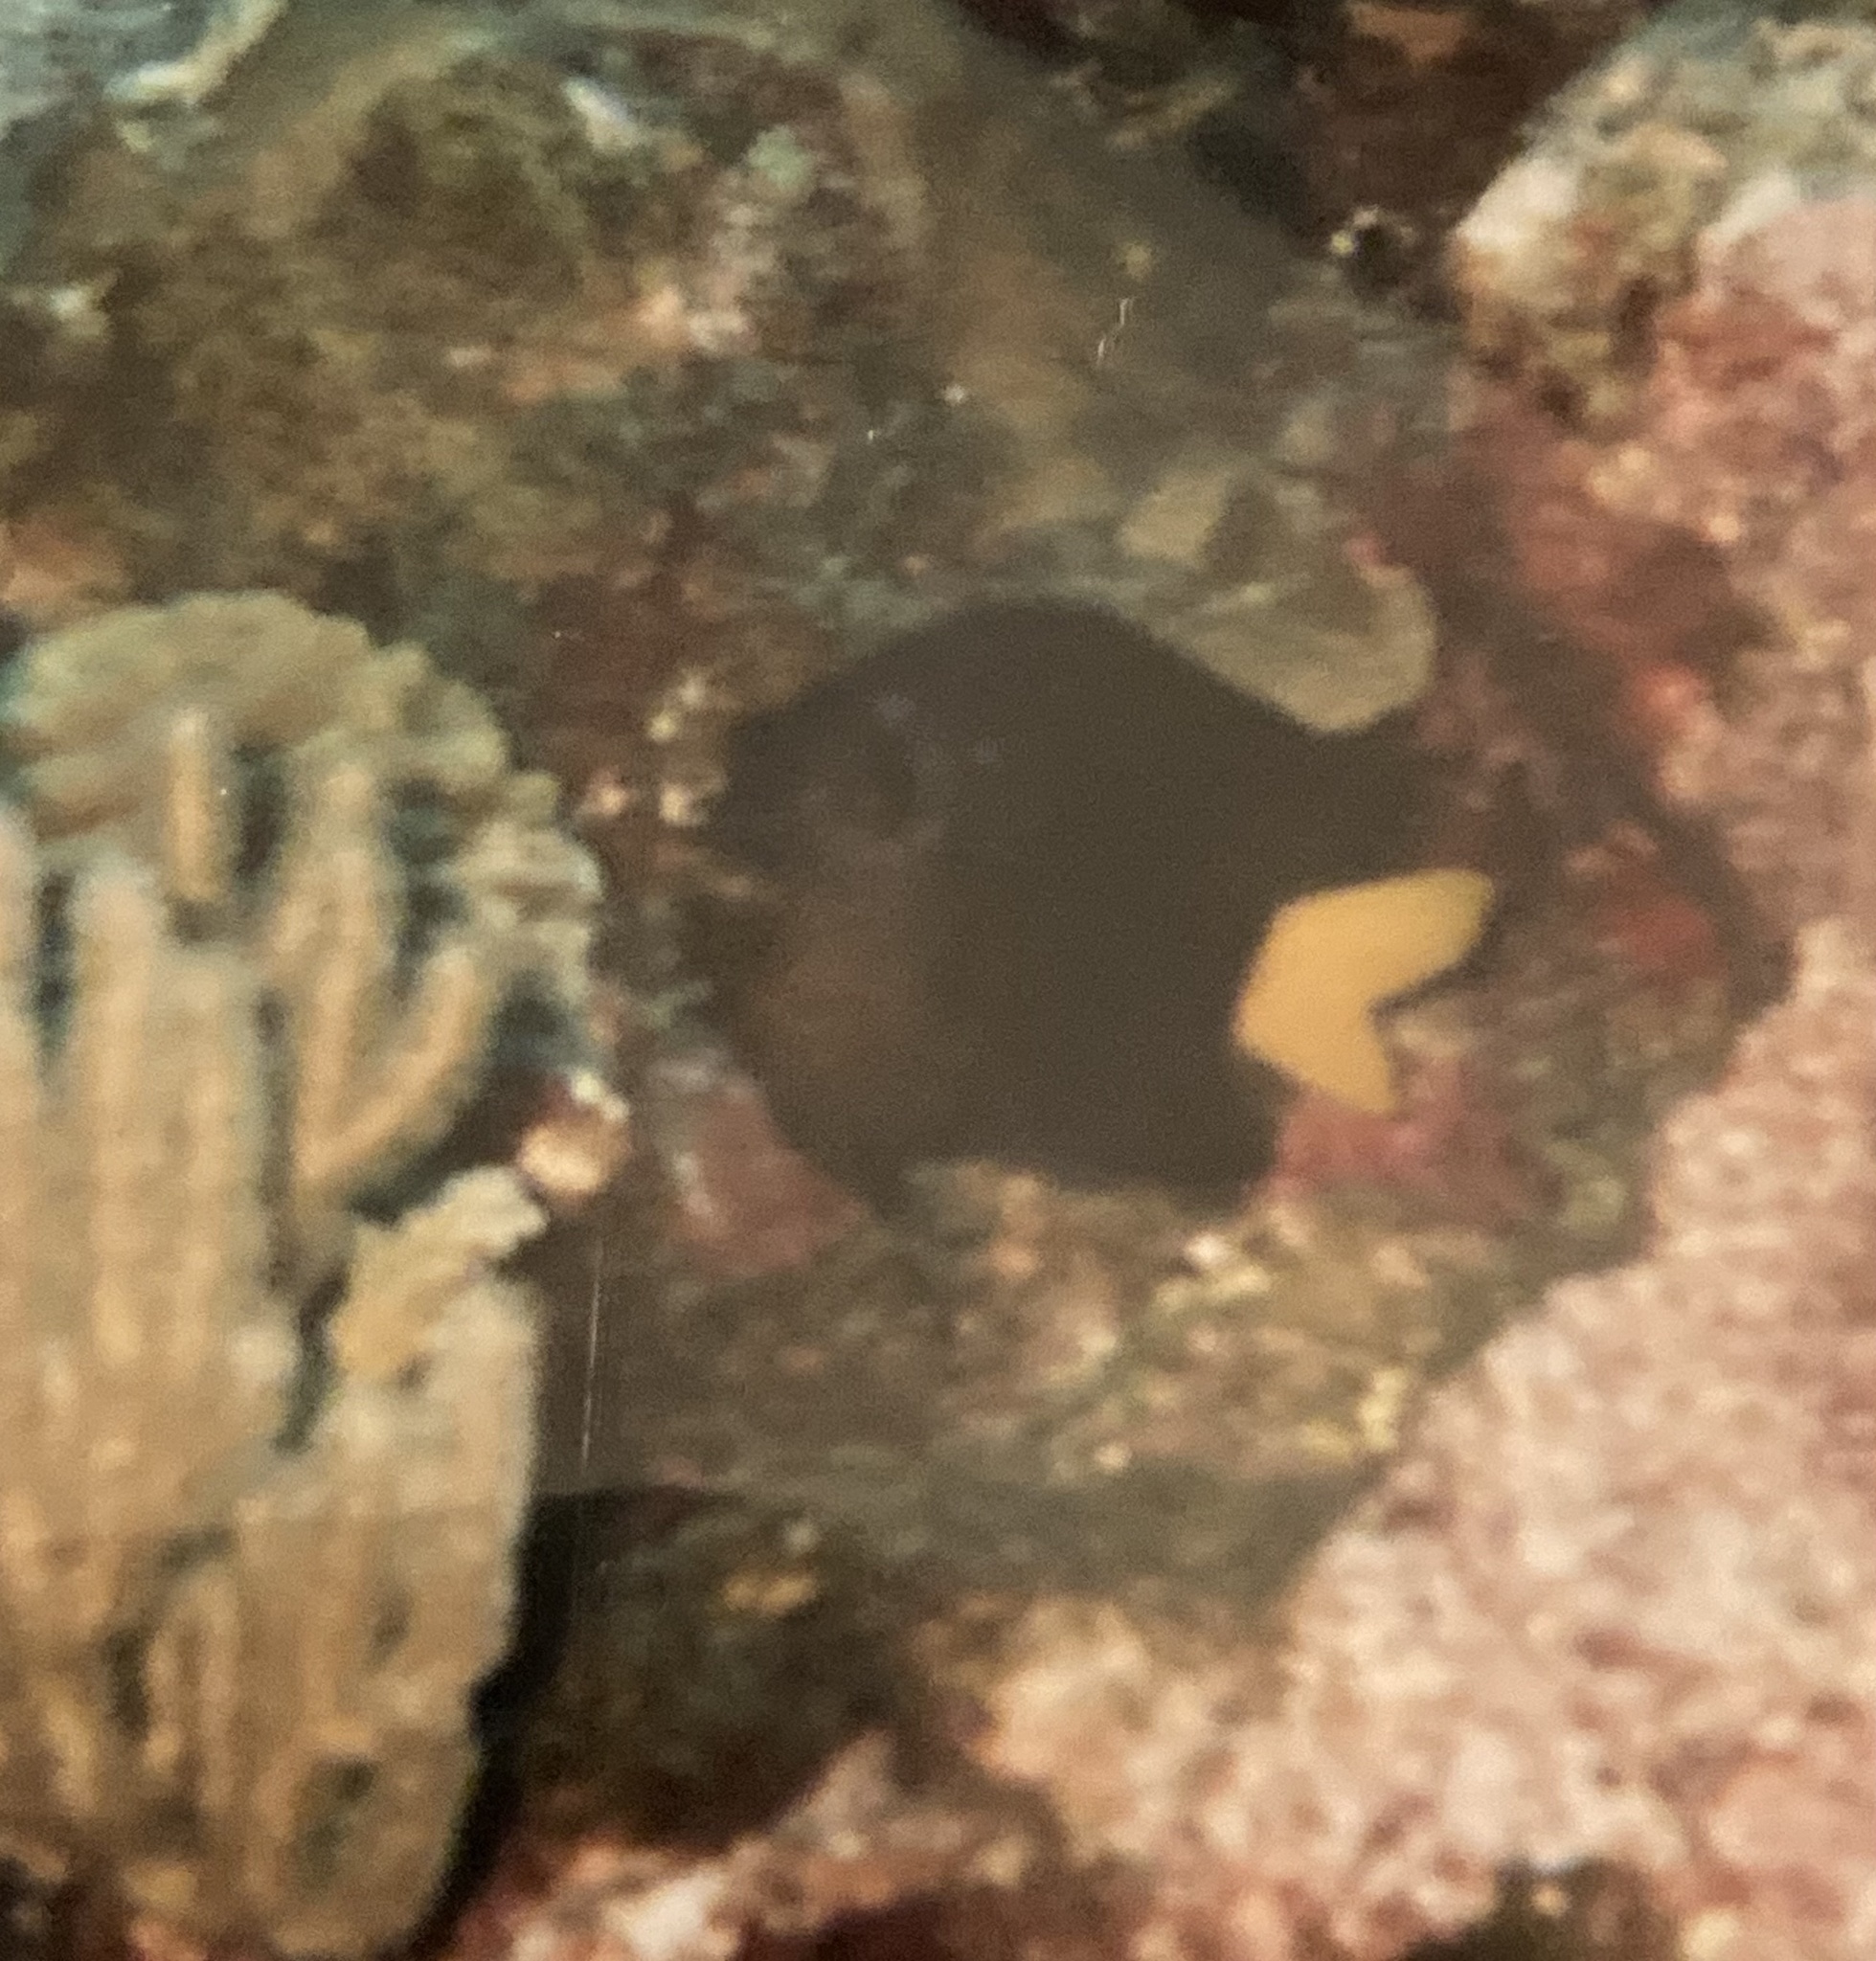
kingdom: Animalia
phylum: Chordata
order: Perciformes
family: Pomacentridae
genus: Microspathodon
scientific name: Microspathodon chrysurus
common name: Yellowtail damselfish
